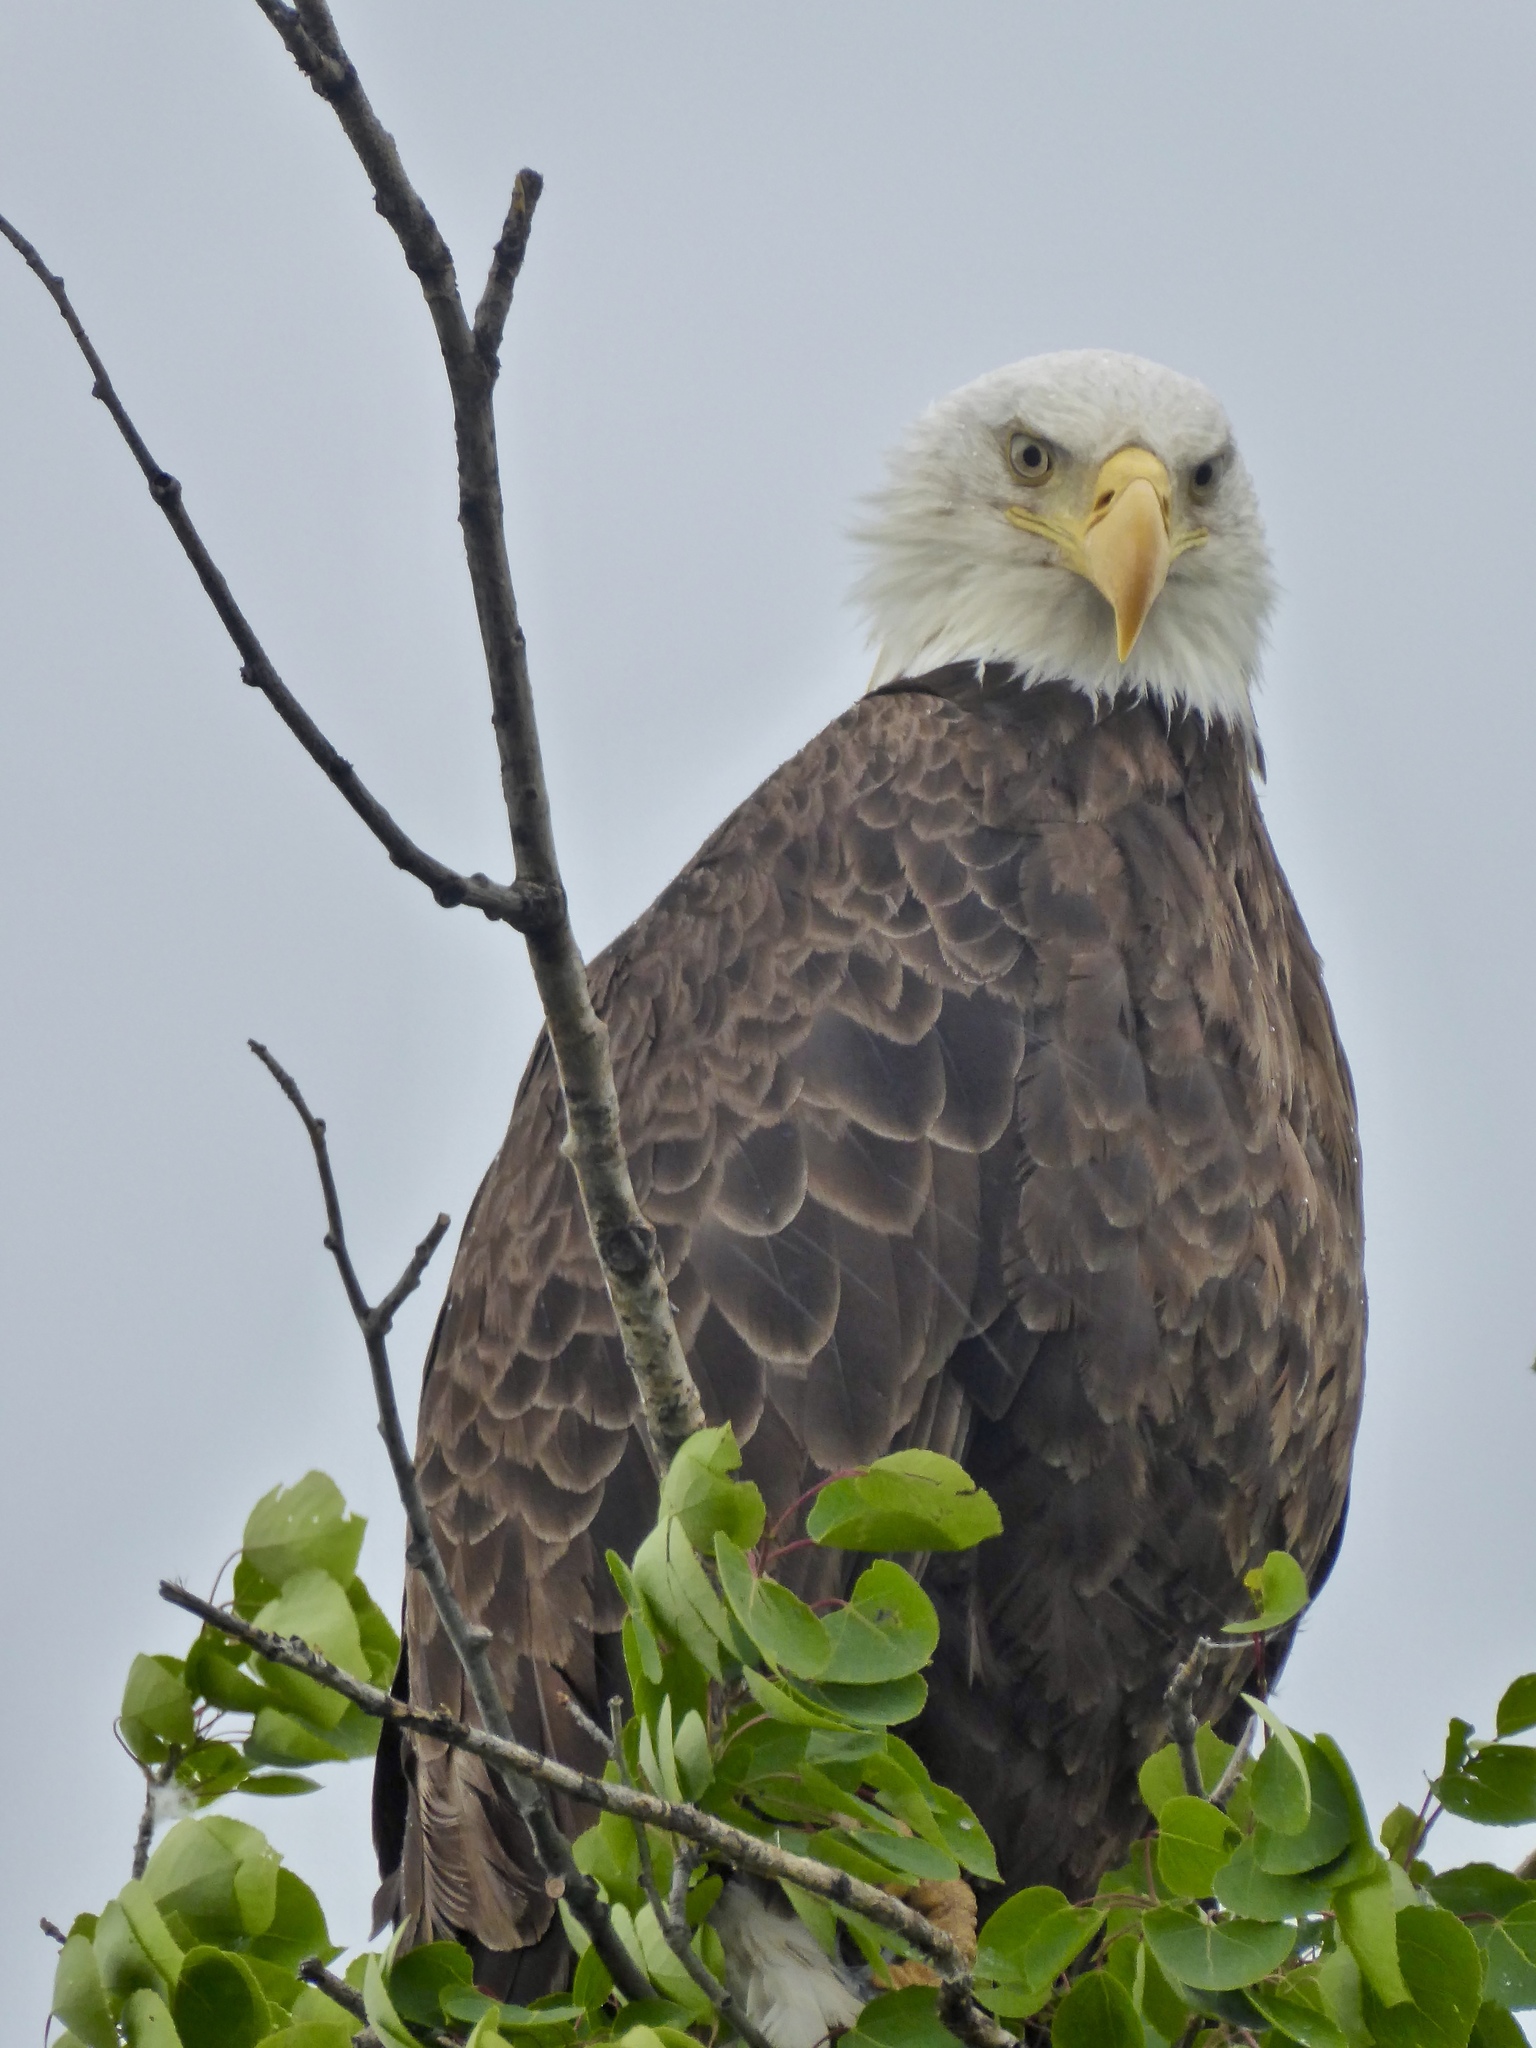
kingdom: Animalia
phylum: Chordata
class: Aves
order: Accipitriformes
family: Accipitridae
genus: Haliaeetus
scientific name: Haliaeetus leucocephalus
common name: Bald eagle
